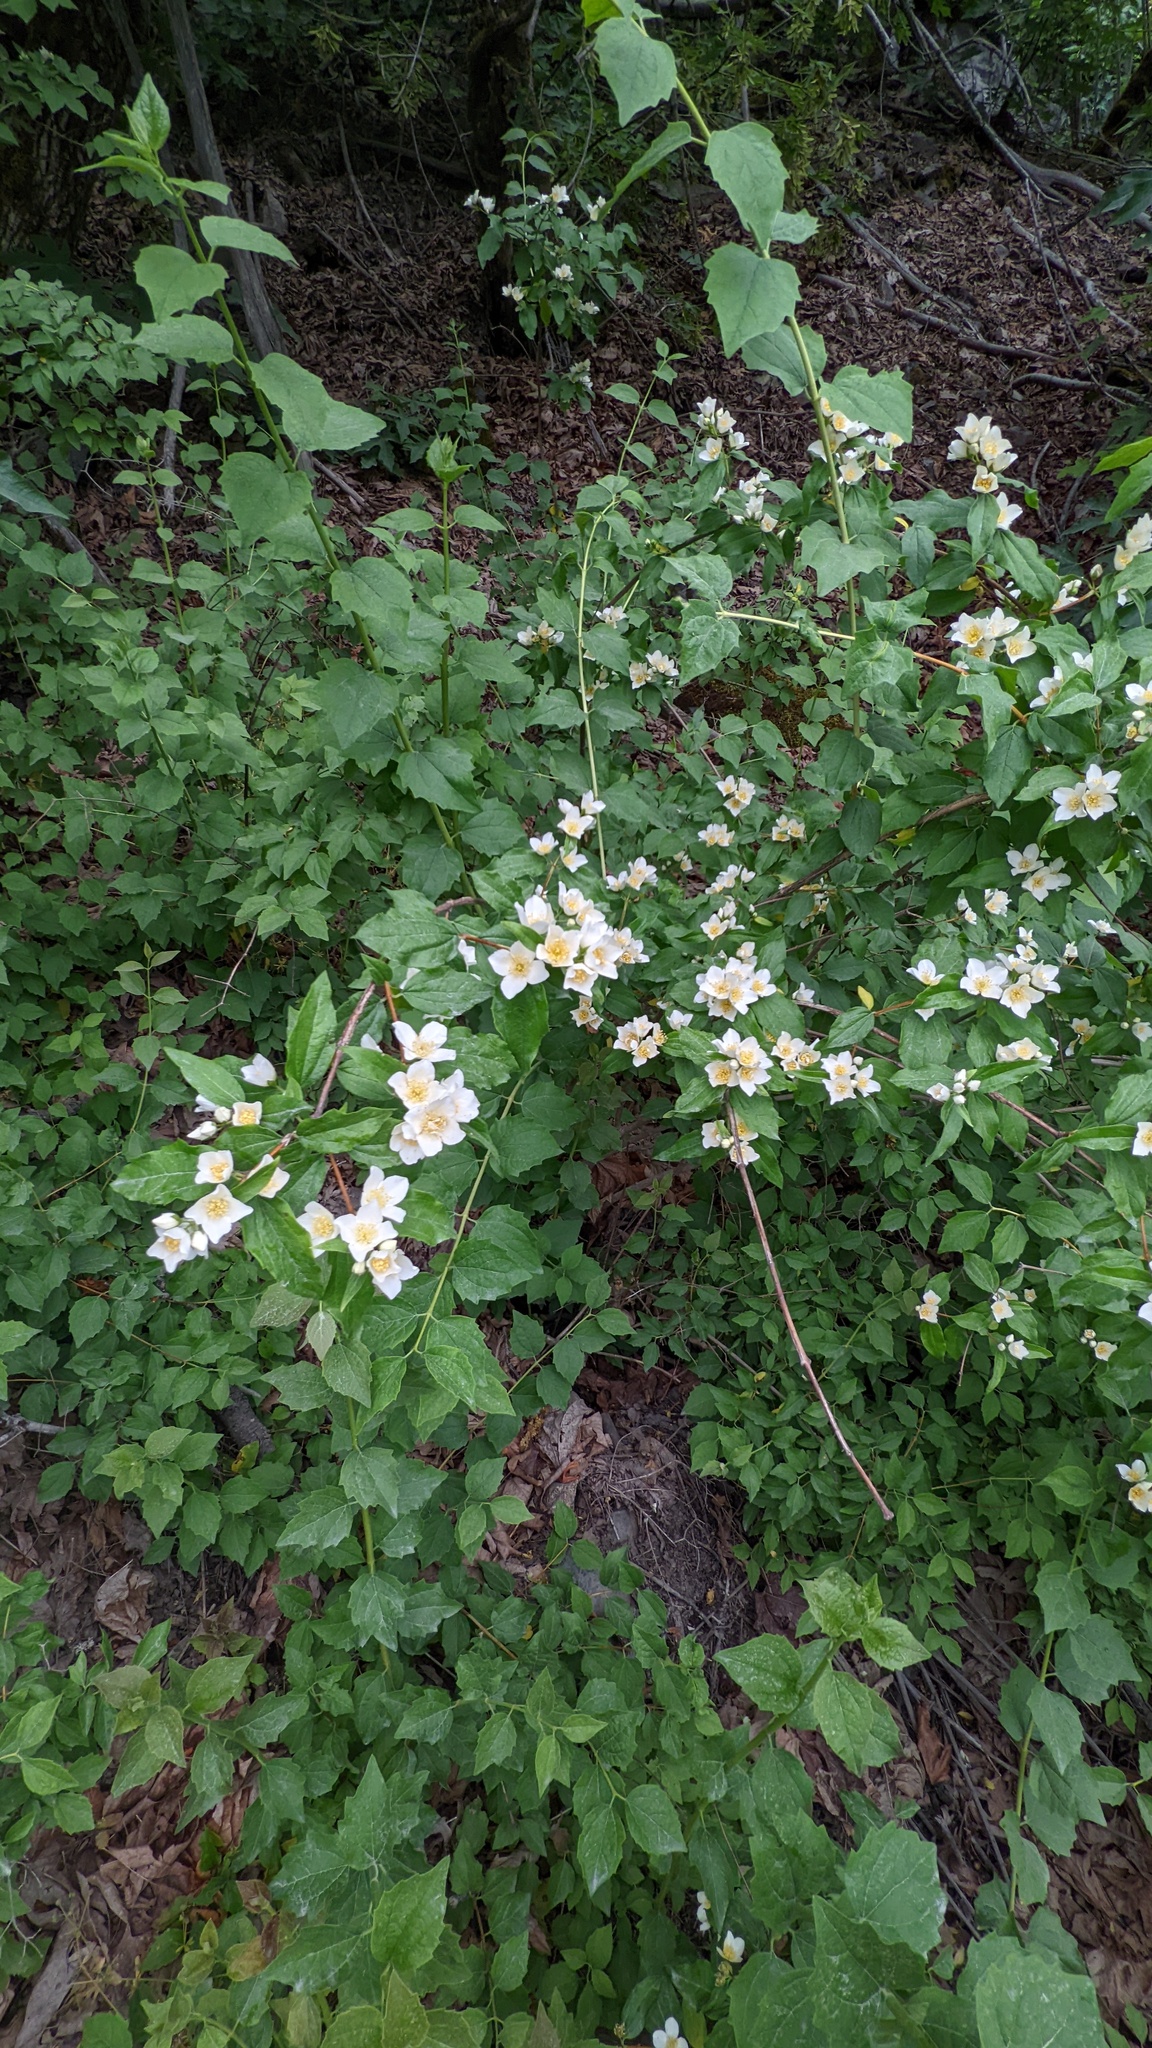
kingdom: Plantae
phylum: Tracheophyta
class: Magnoliopsida
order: Cornales
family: Hydrangeaceae
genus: Philadelphus
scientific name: Philadelphus lewisii
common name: Lewis's mock orange
